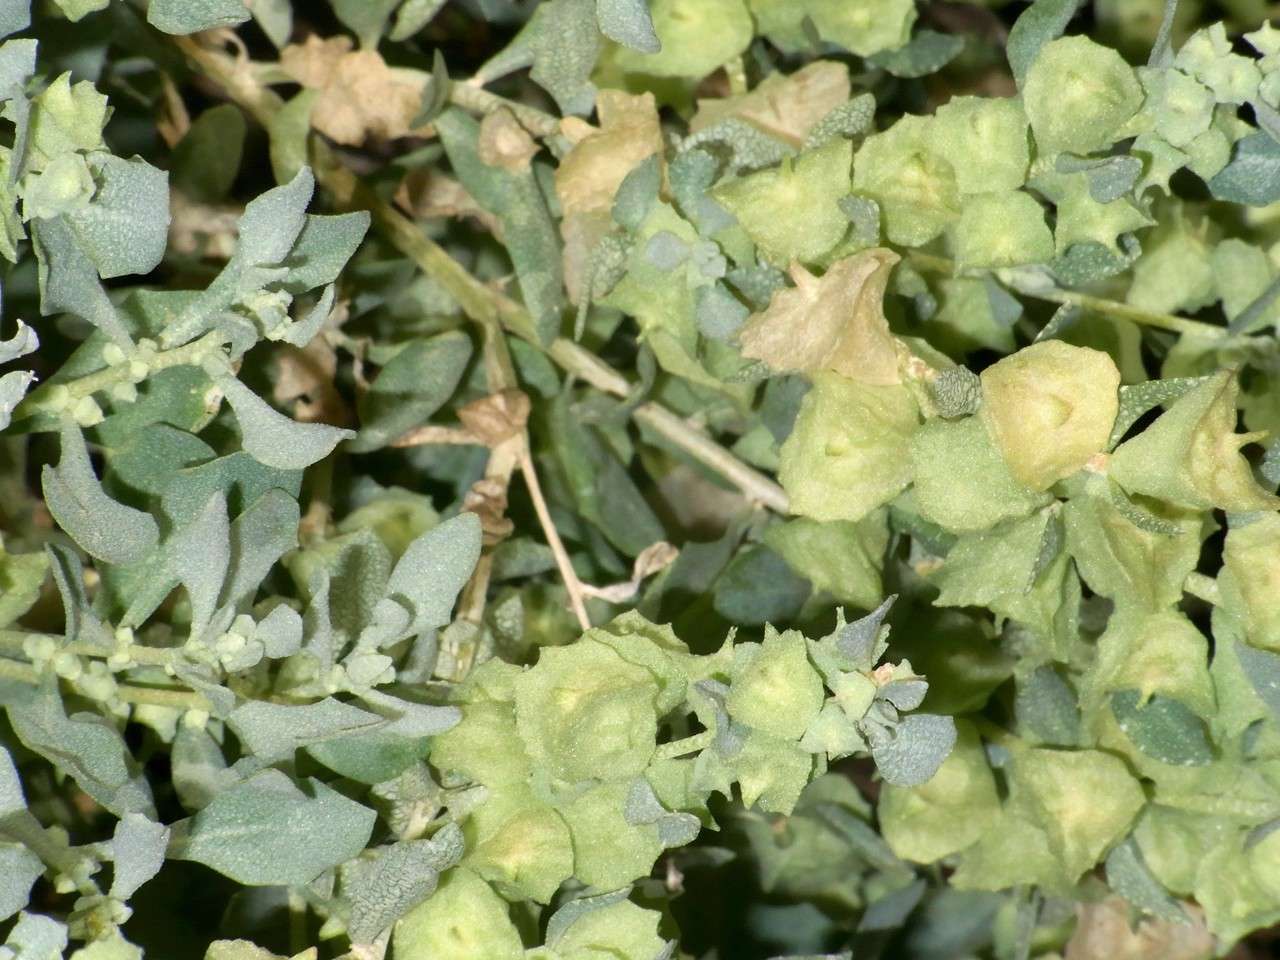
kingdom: Plantae
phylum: Tracheophyta
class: Magnoliopsida
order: Caryophyllales
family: Amaranthaceae
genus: Atriplex
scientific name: Atriplex lindleyi
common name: Lindley's saltbush
